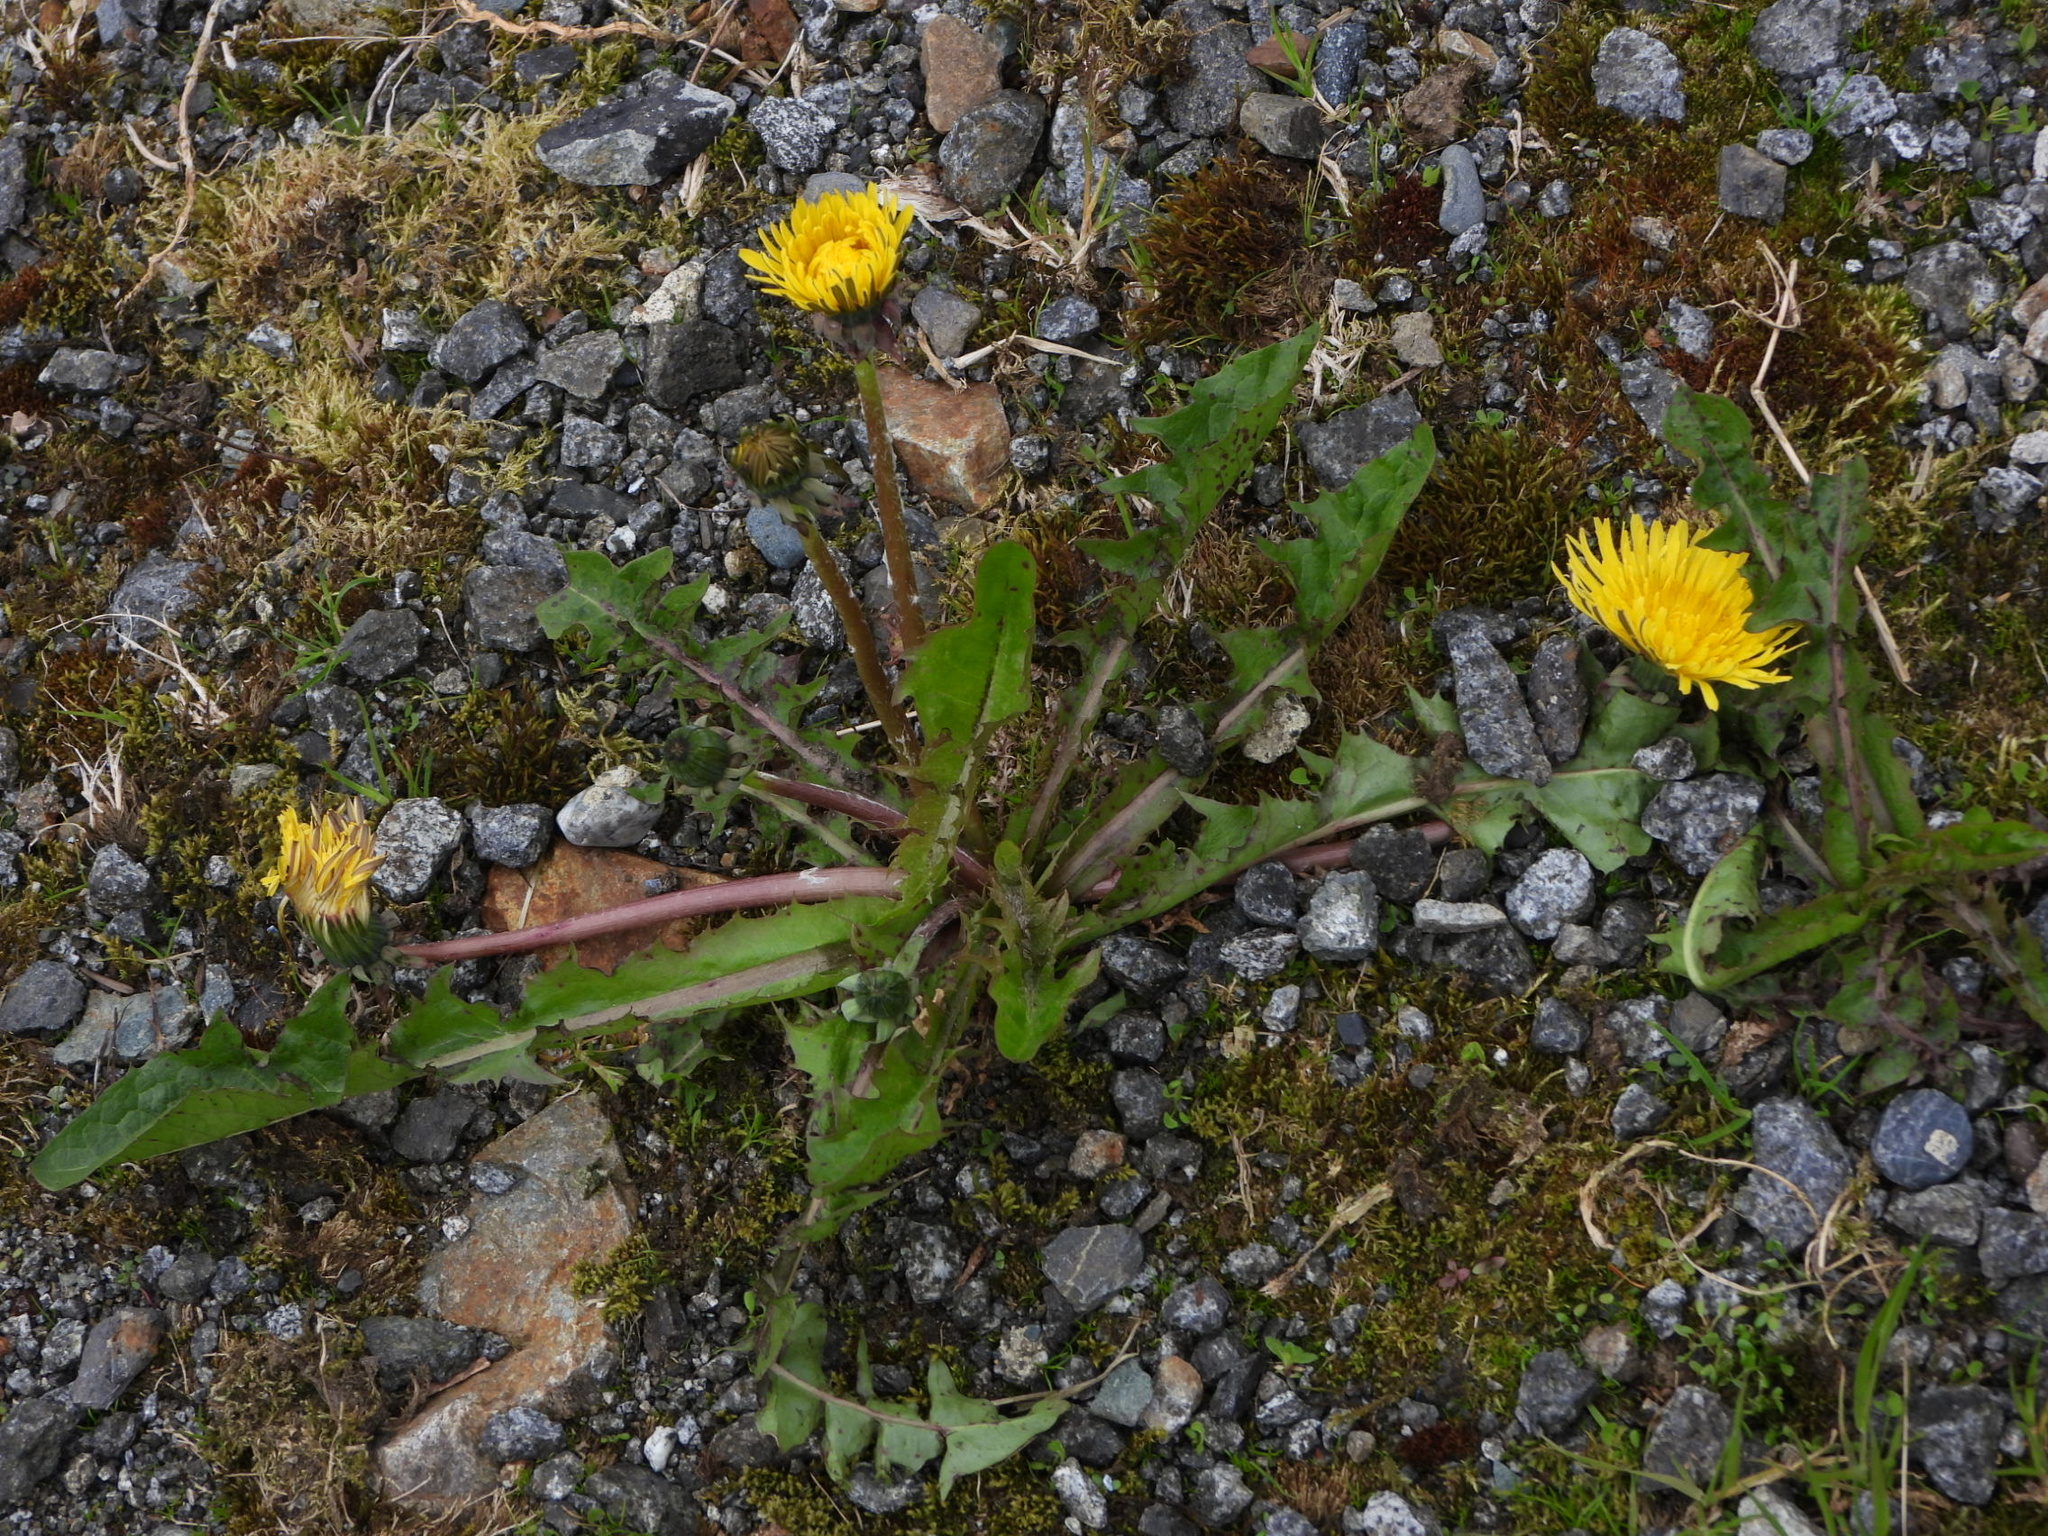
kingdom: Plantae
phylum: Tracheophyta
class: Magnoliopsida
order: Asterales
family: Asteraceae
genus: Taraxacum
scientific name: Taraxacum officinale
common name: Common dandelion
